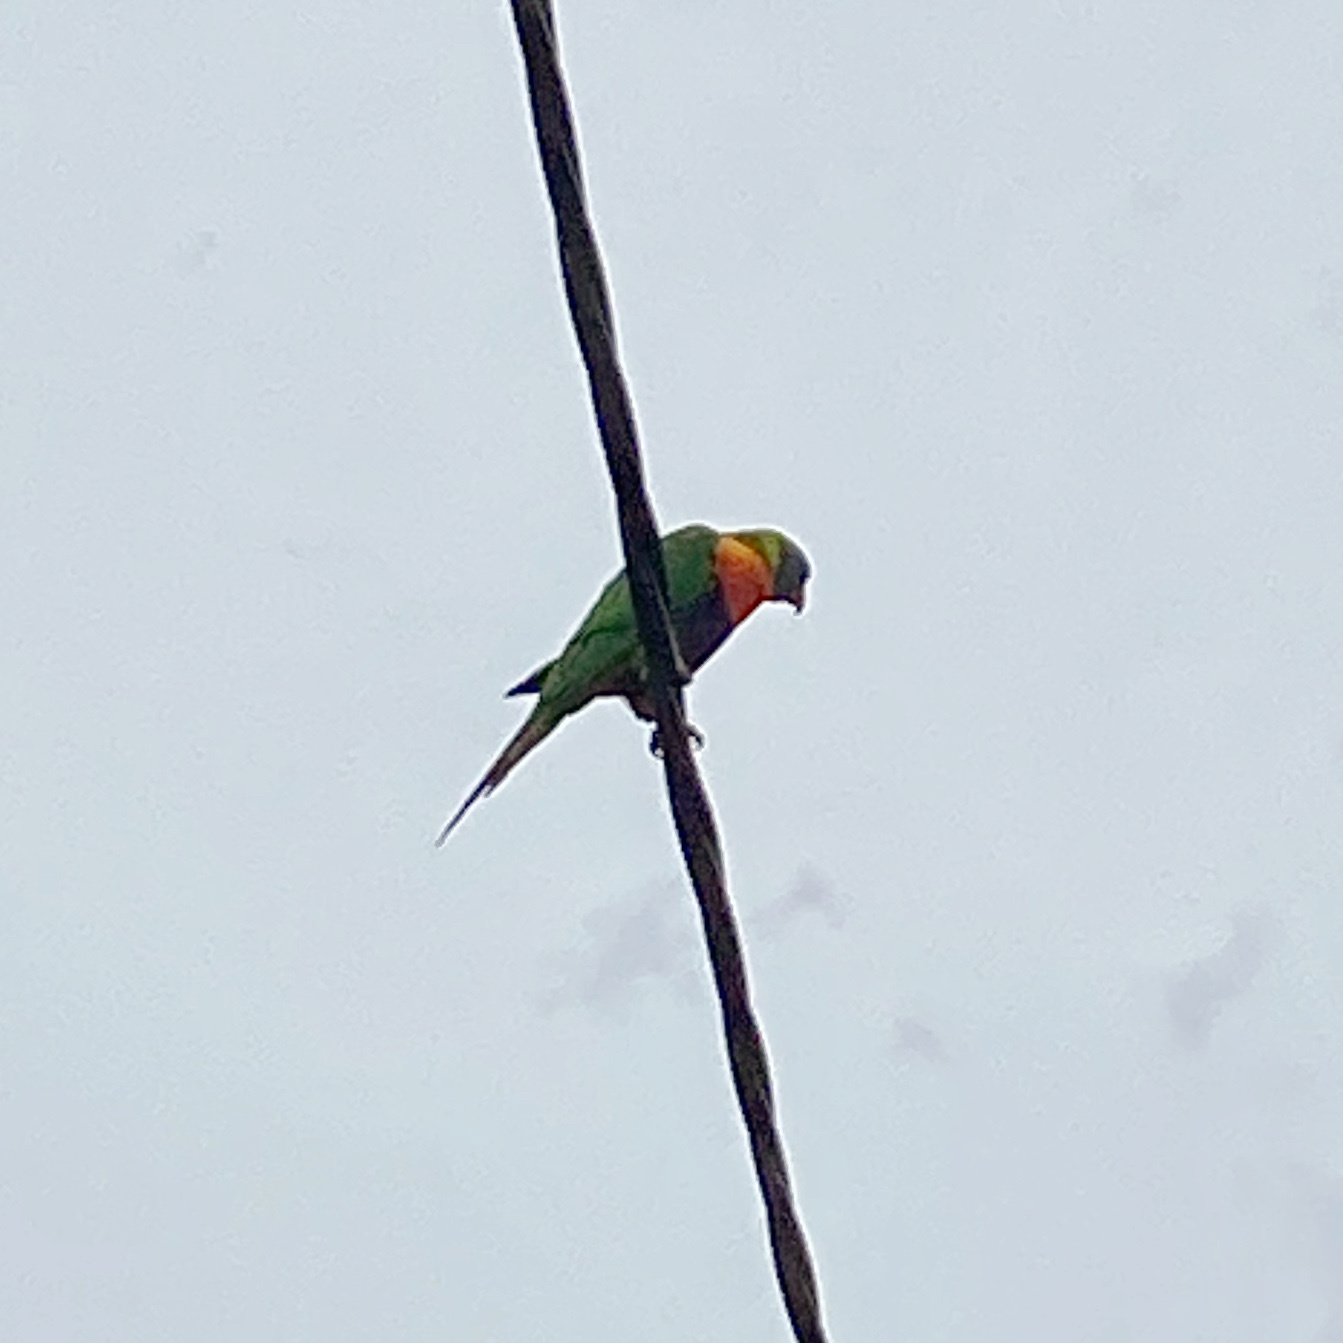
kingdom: Animalia
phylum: Chordata
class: Aves
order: Psittaciformes
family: Psittacidae
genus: Trichoglossus
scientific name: Trichoglossus haematodus
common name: Coconut lorikeet
